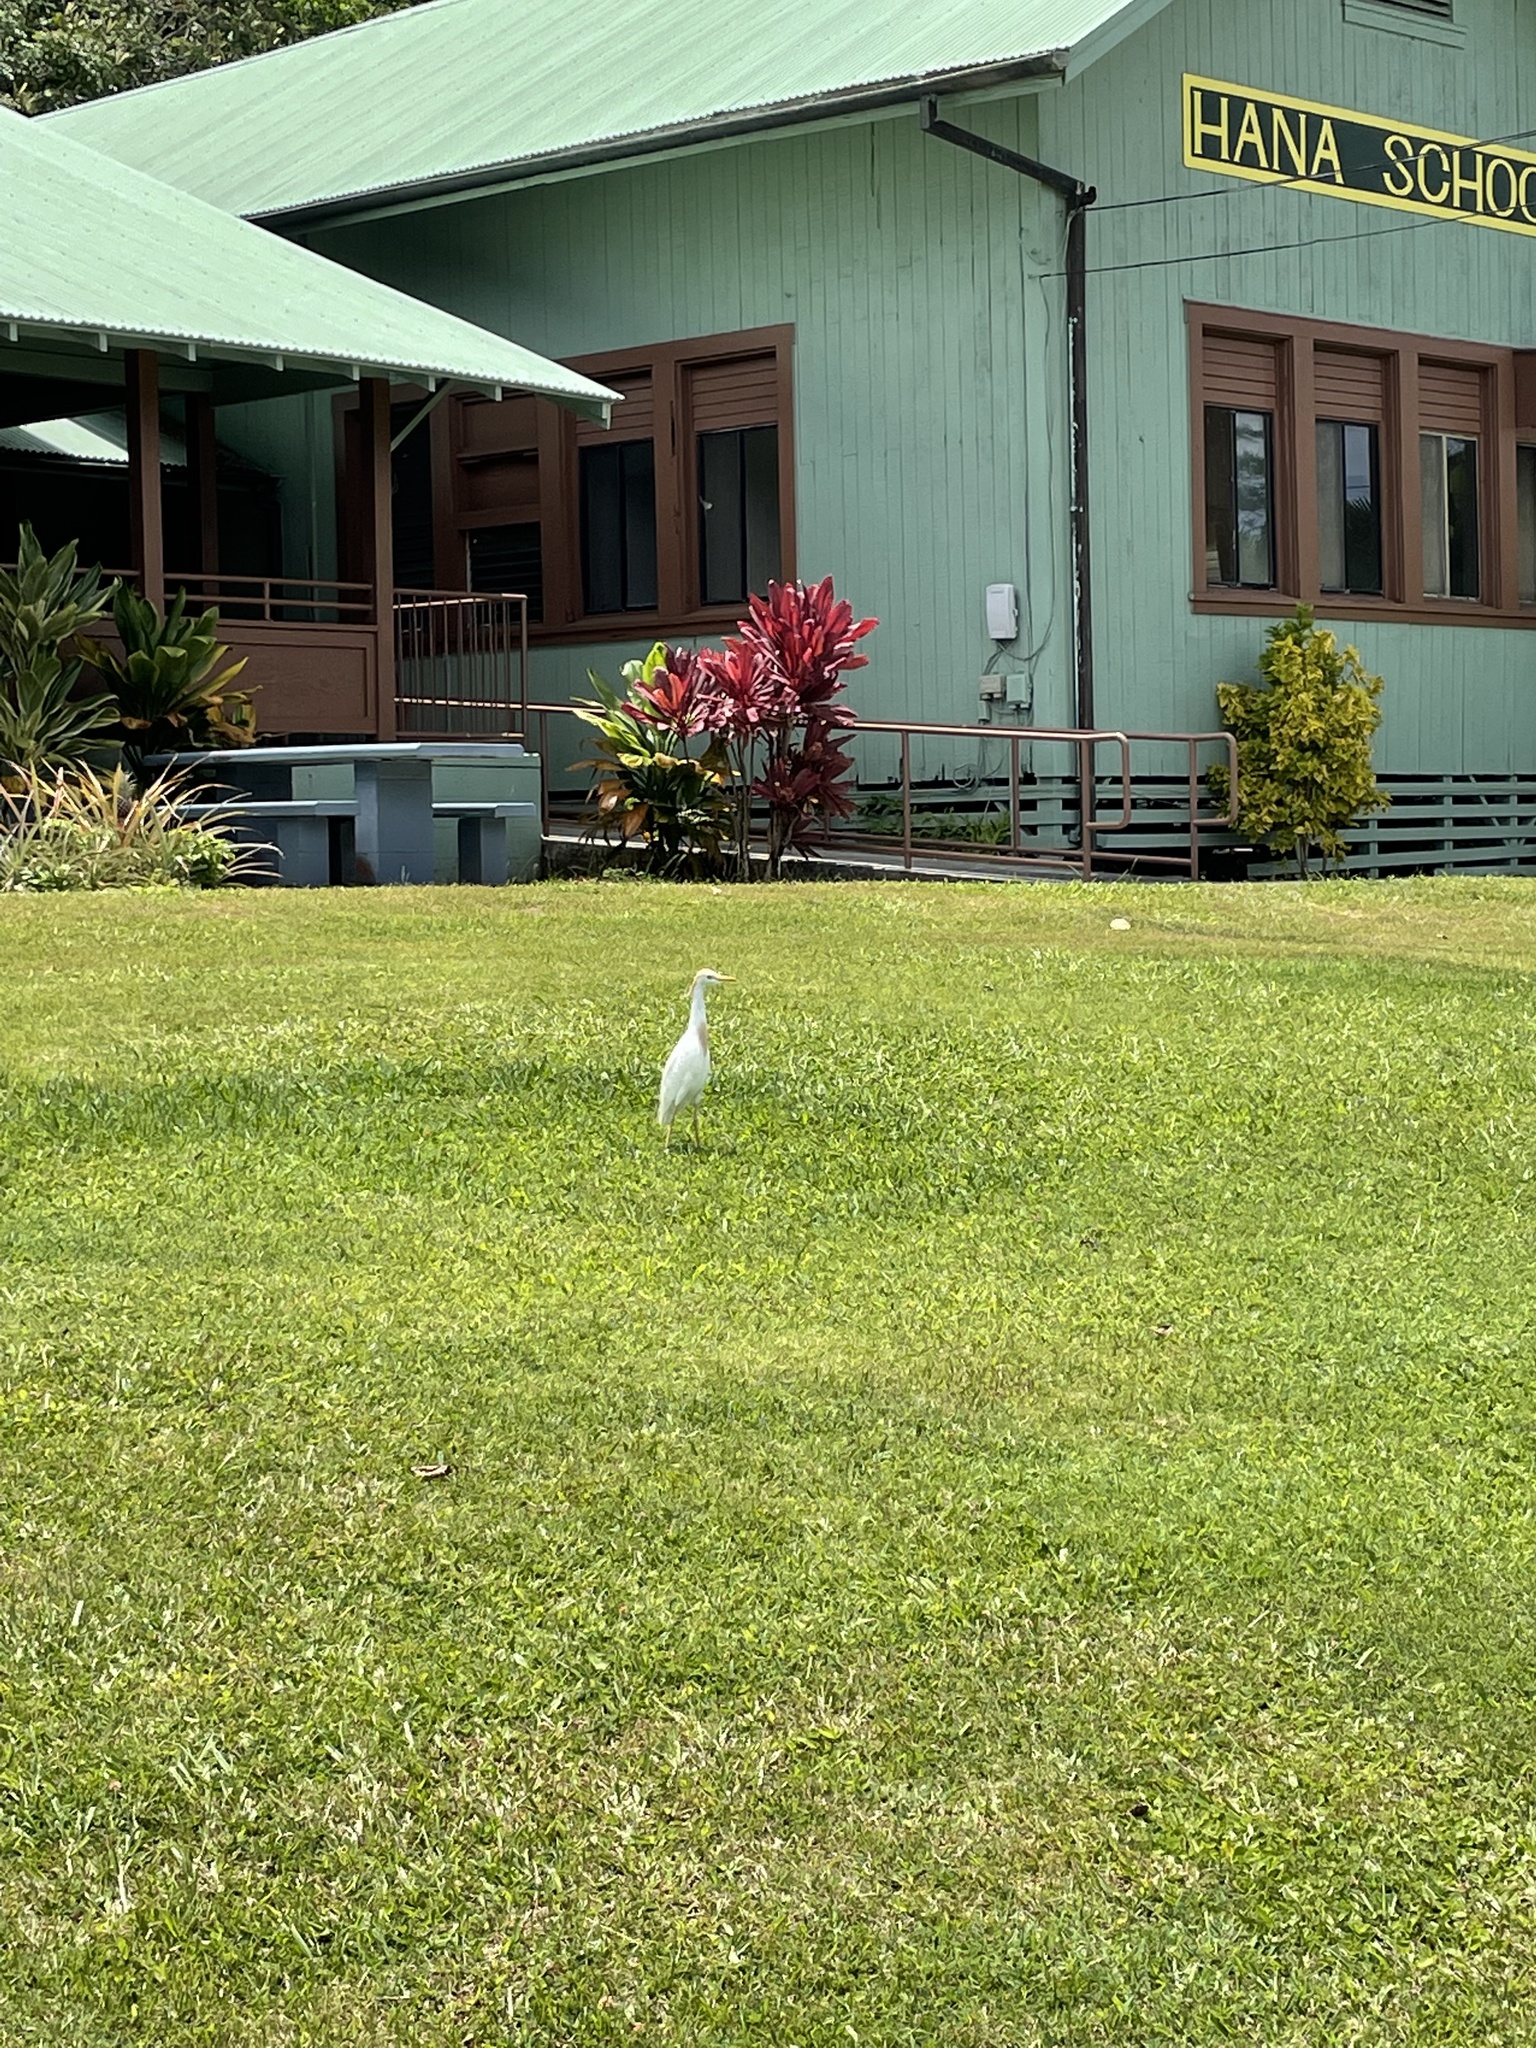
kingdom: Animalia
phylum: Chordata
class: Aves
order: Pelecaniformes
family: Ardeidae
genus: Bubulcus
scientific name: Bubulcus ibis
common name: Cattle egret
